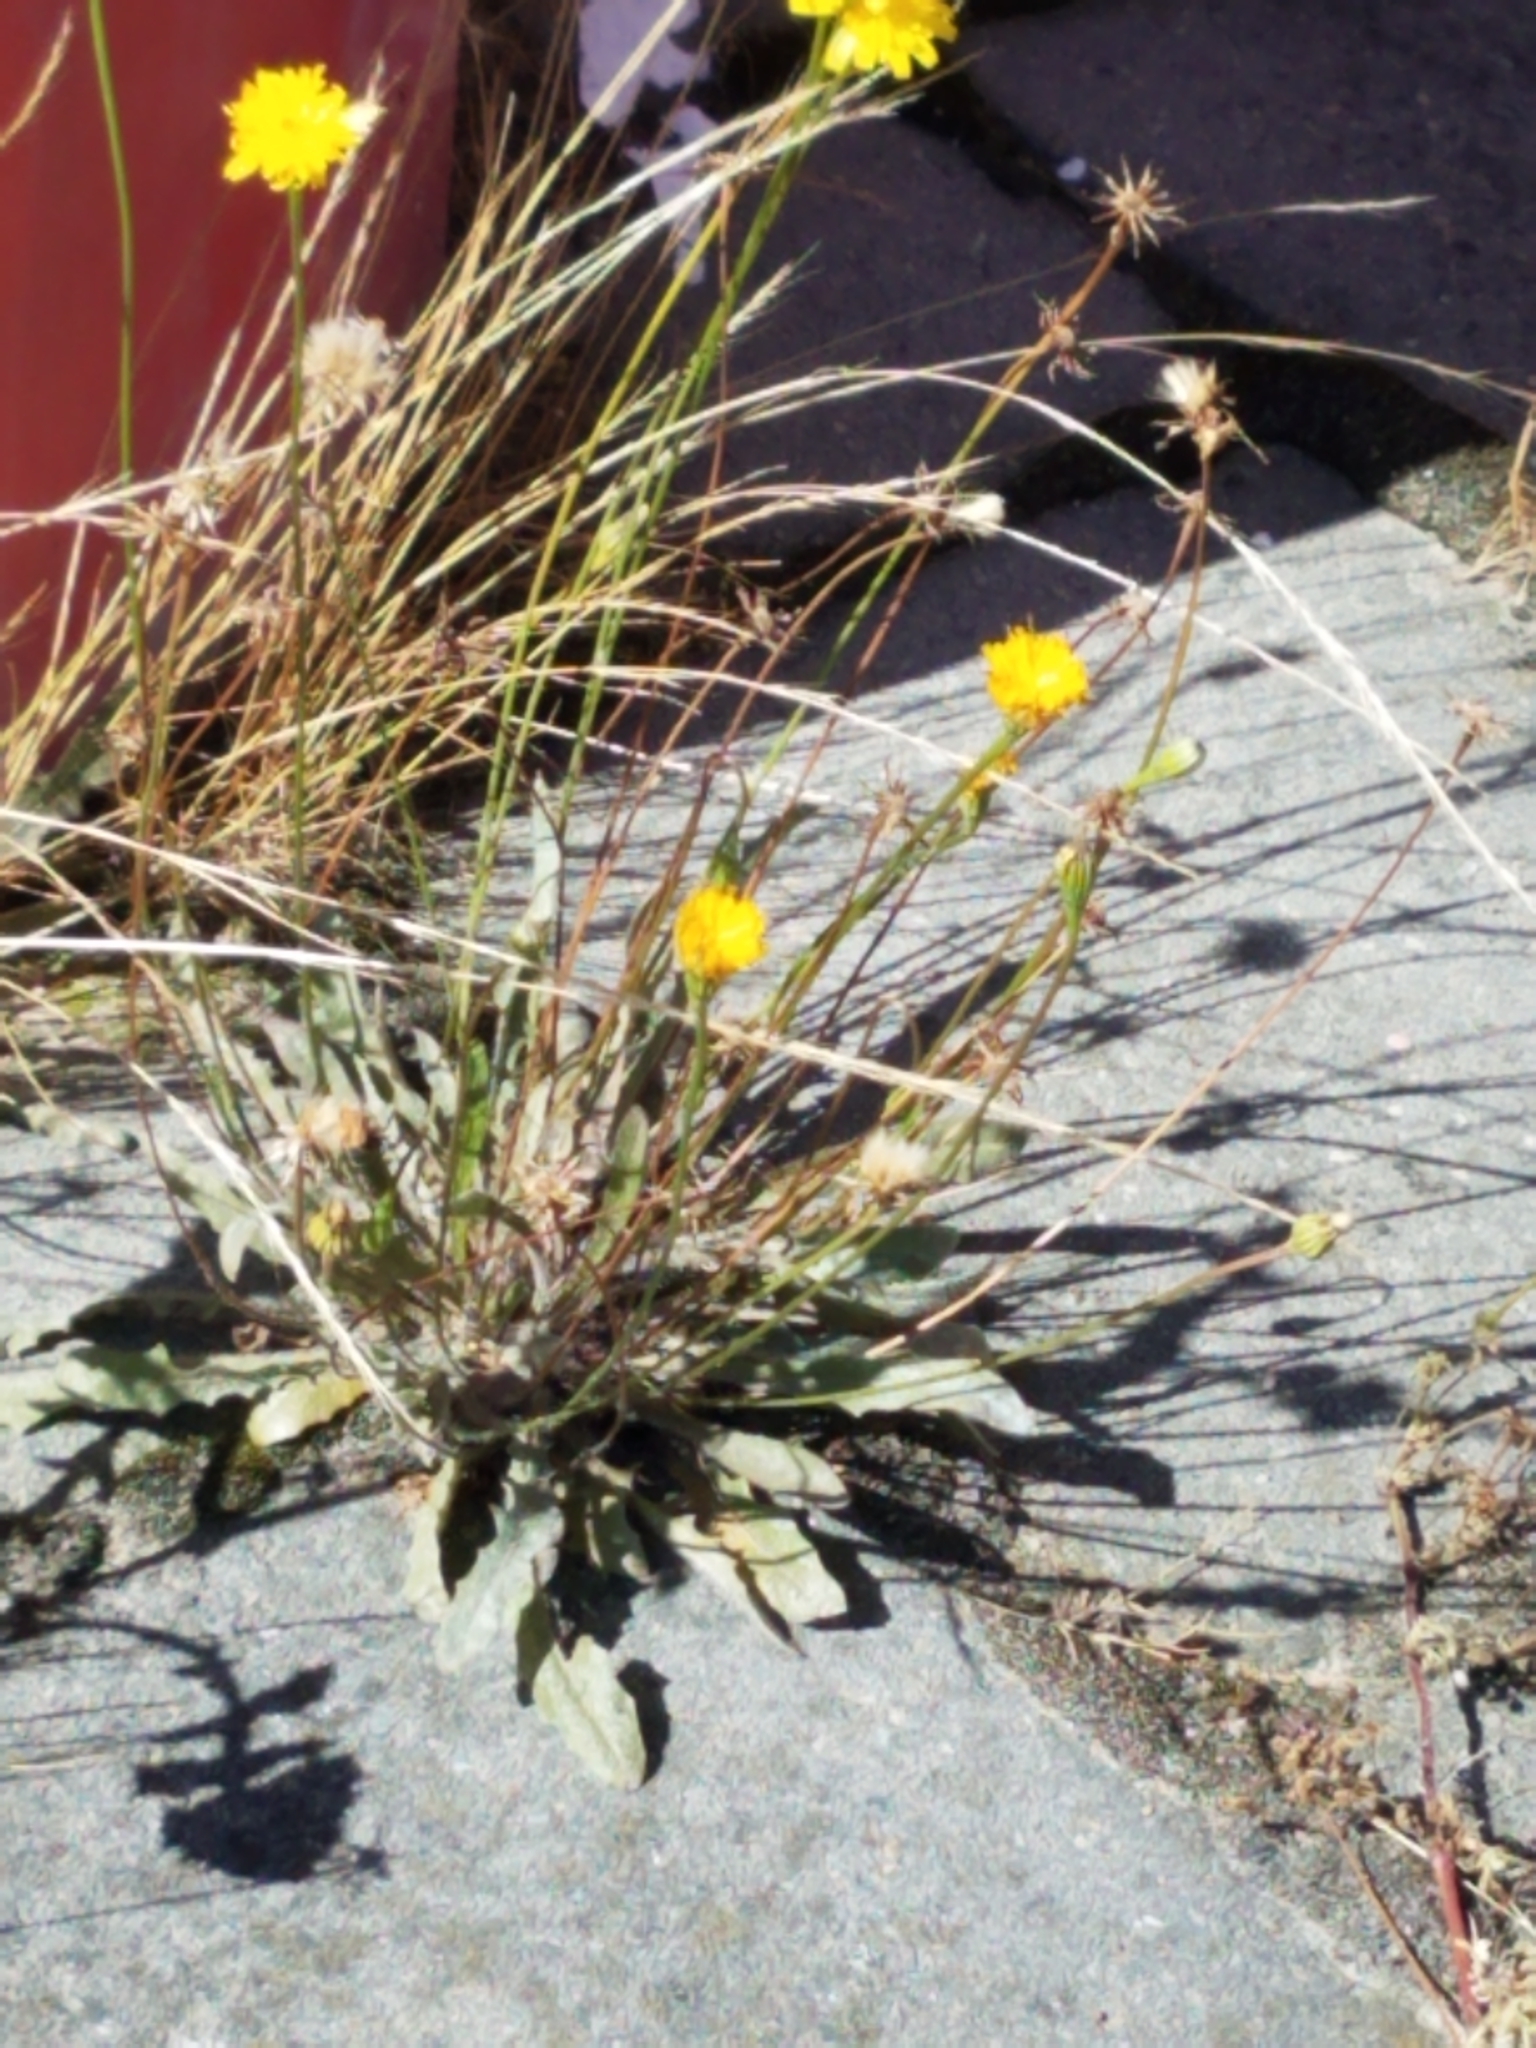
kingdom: Plantae
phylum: Tracheophyta
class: Magnoliopsida
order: Asterales
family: Asteraceae
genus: Hypochaeris
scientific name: Hypochaeris radicata
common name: Flatweed
